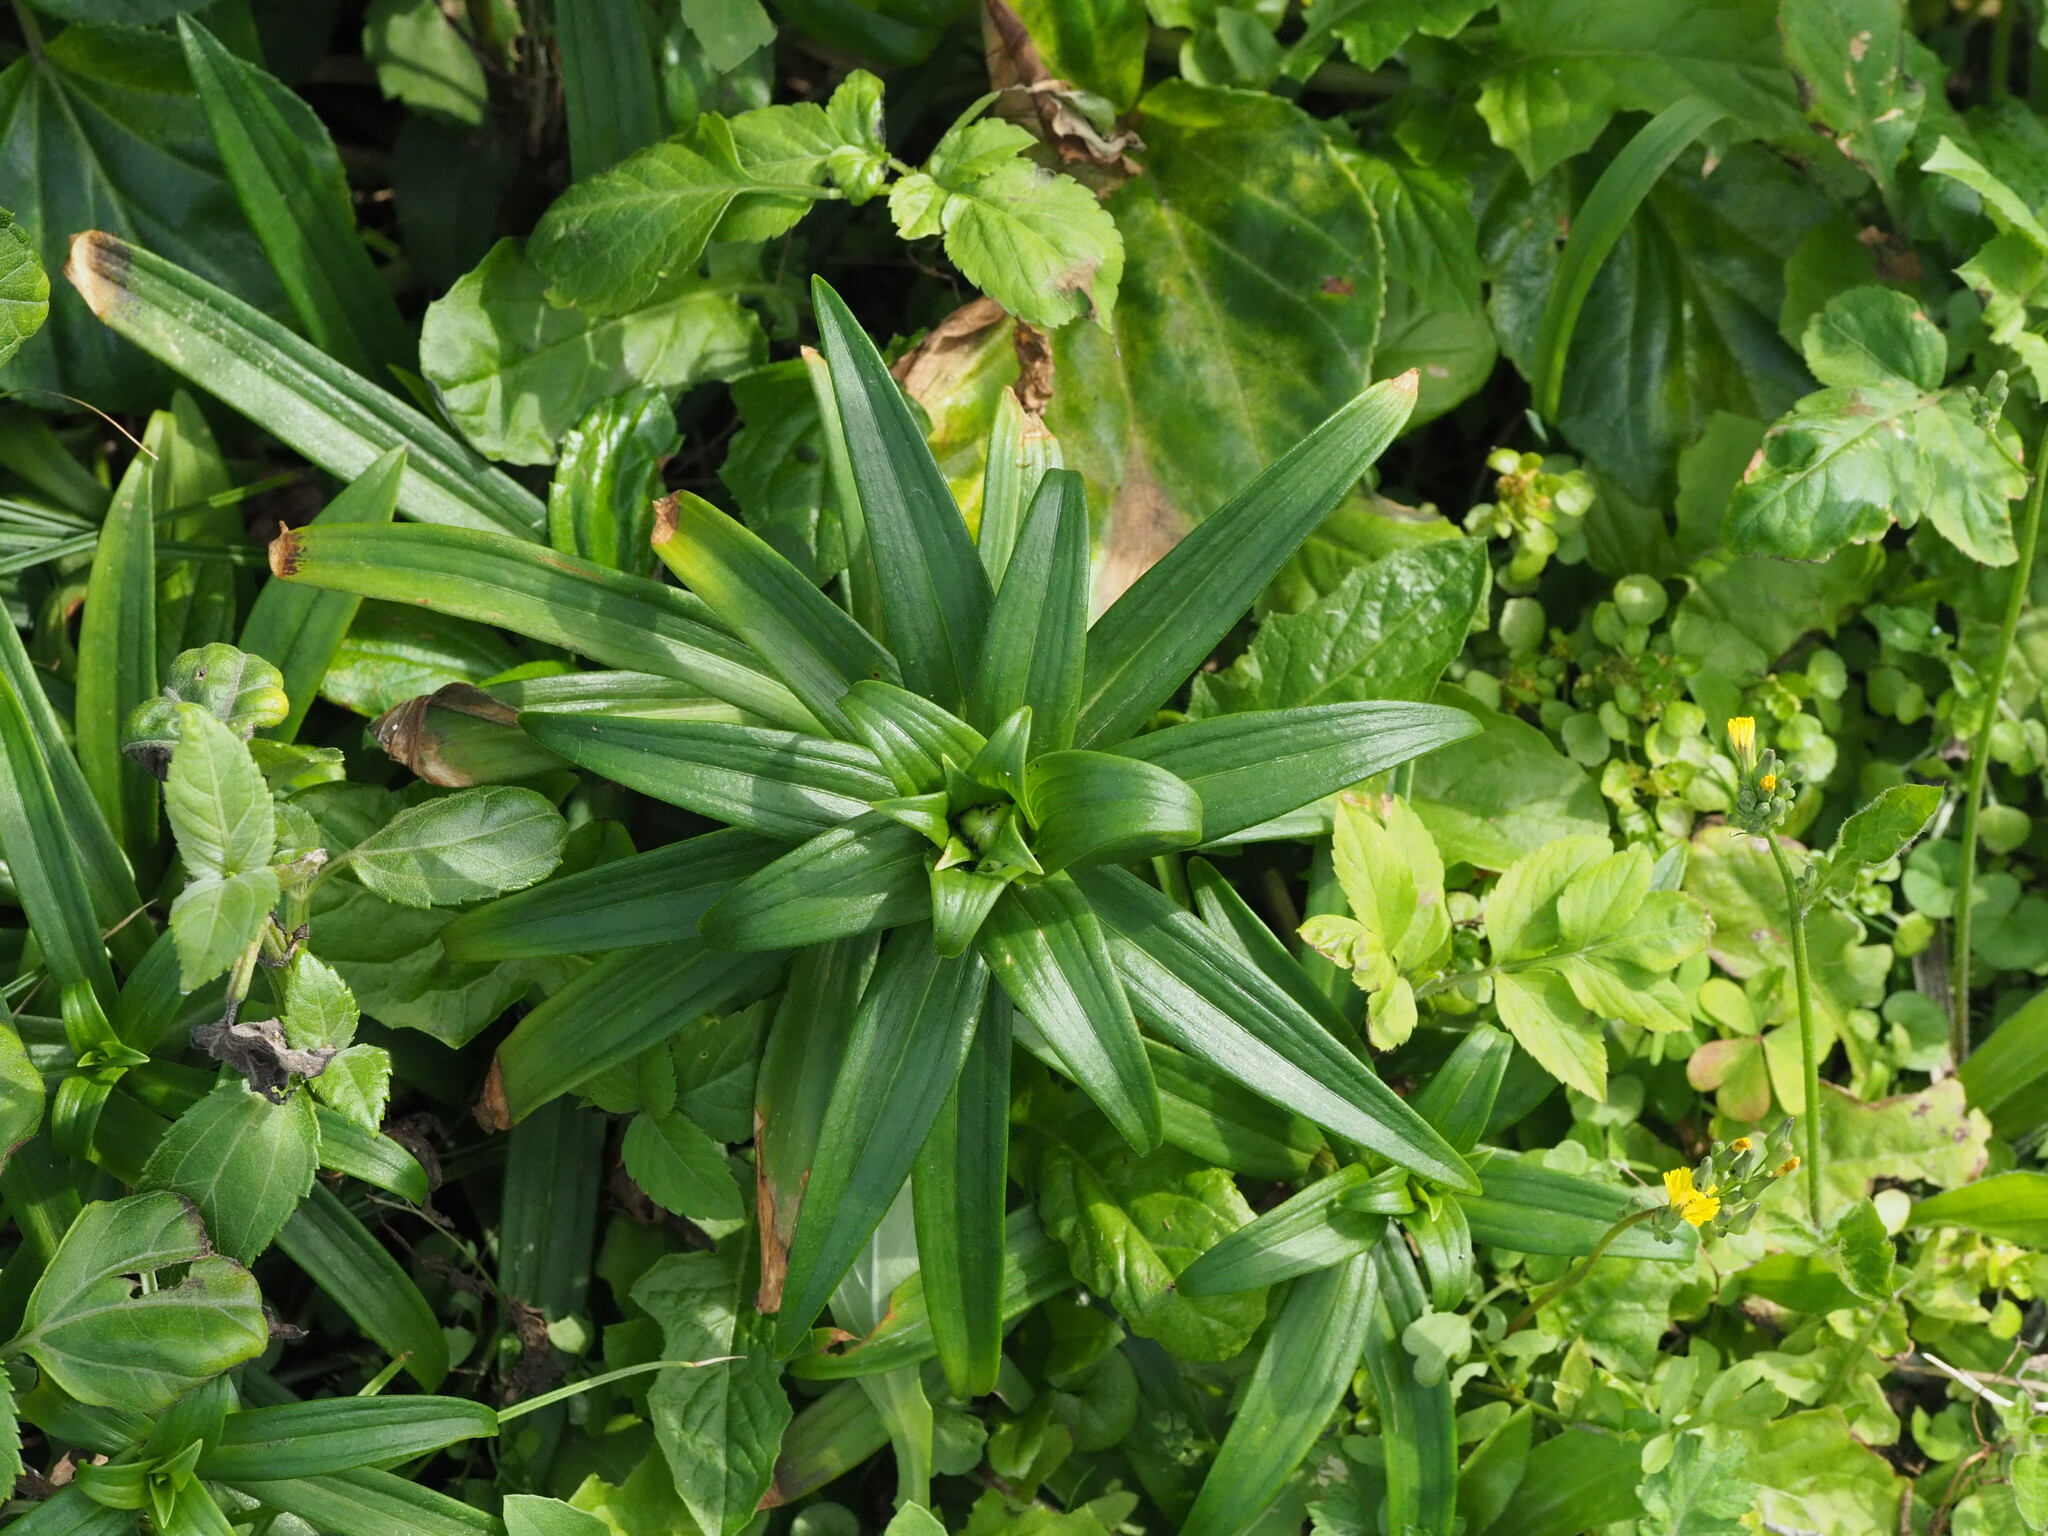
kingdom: Plantae
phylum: Tracheophyta
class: Liliopsida
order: Liliales
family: Liliaceae
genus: Lilium
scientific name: Lilium longiflorum
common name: Easter lily
